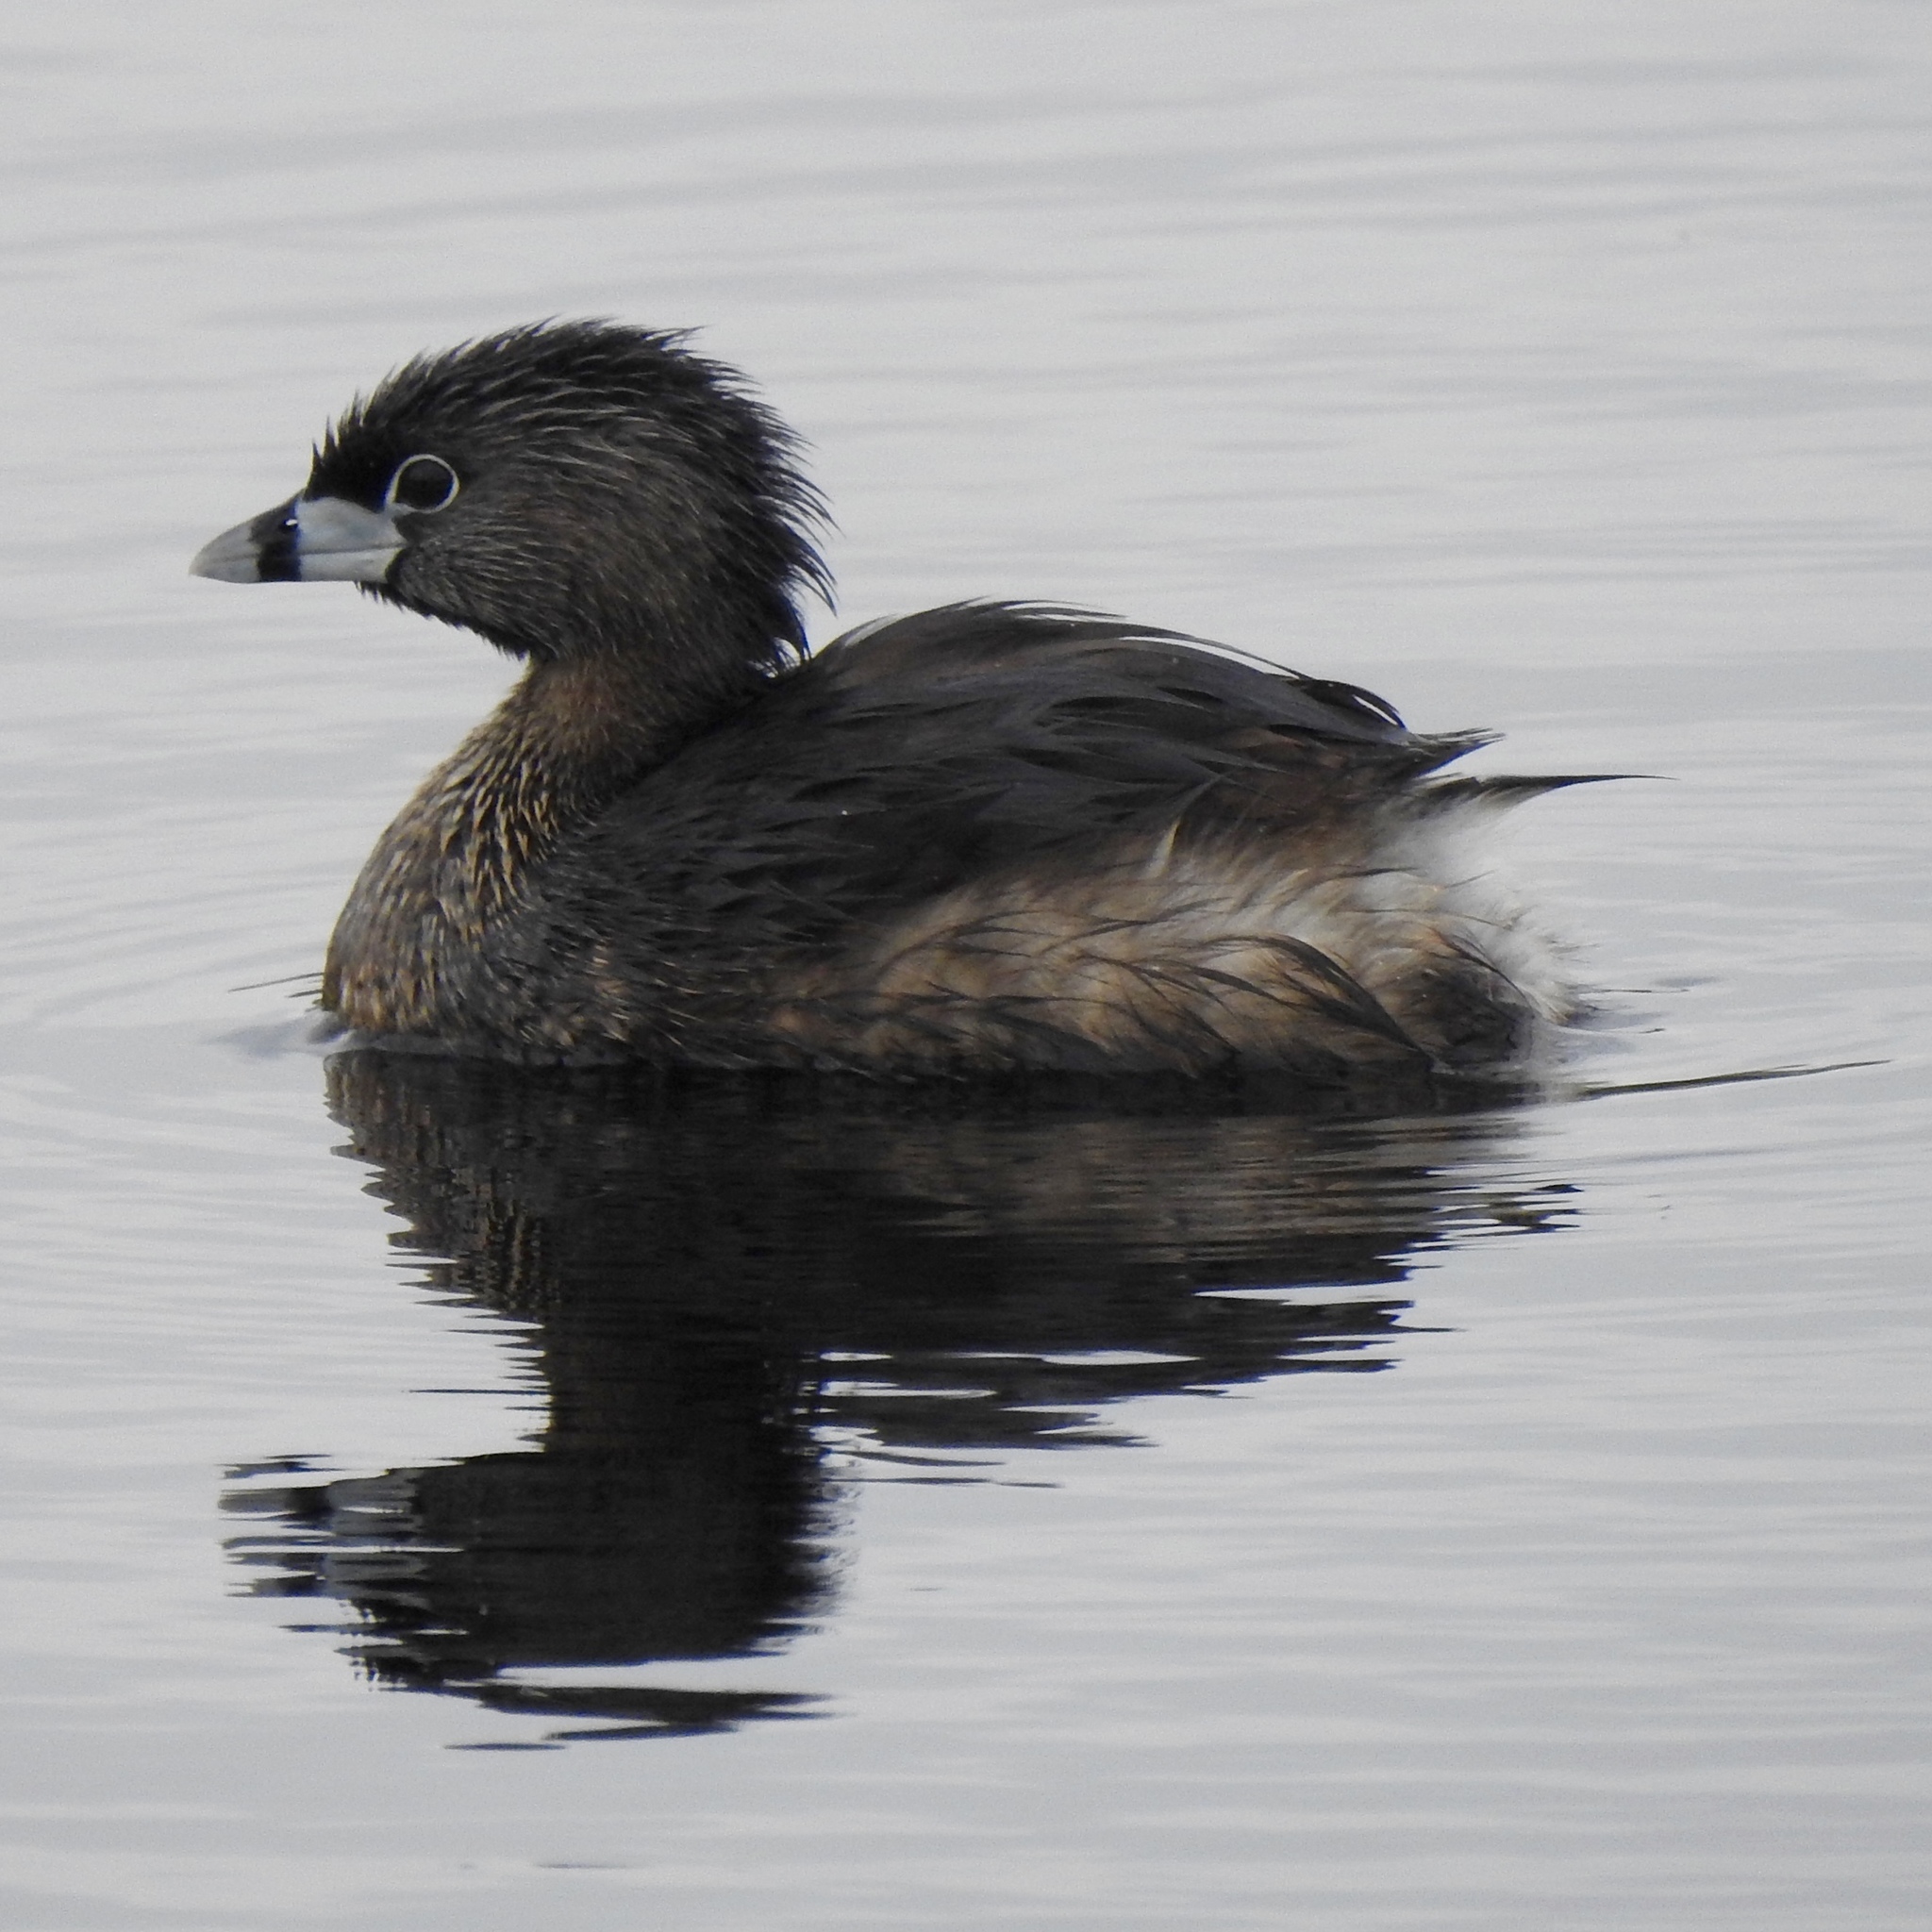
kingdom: Animalia
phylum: Chordata
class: Aves
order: Podicipediformes
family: Podicipedidae
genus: Podilymbus
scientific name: Podilymbus podiceps
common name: Pied-billed grebe
